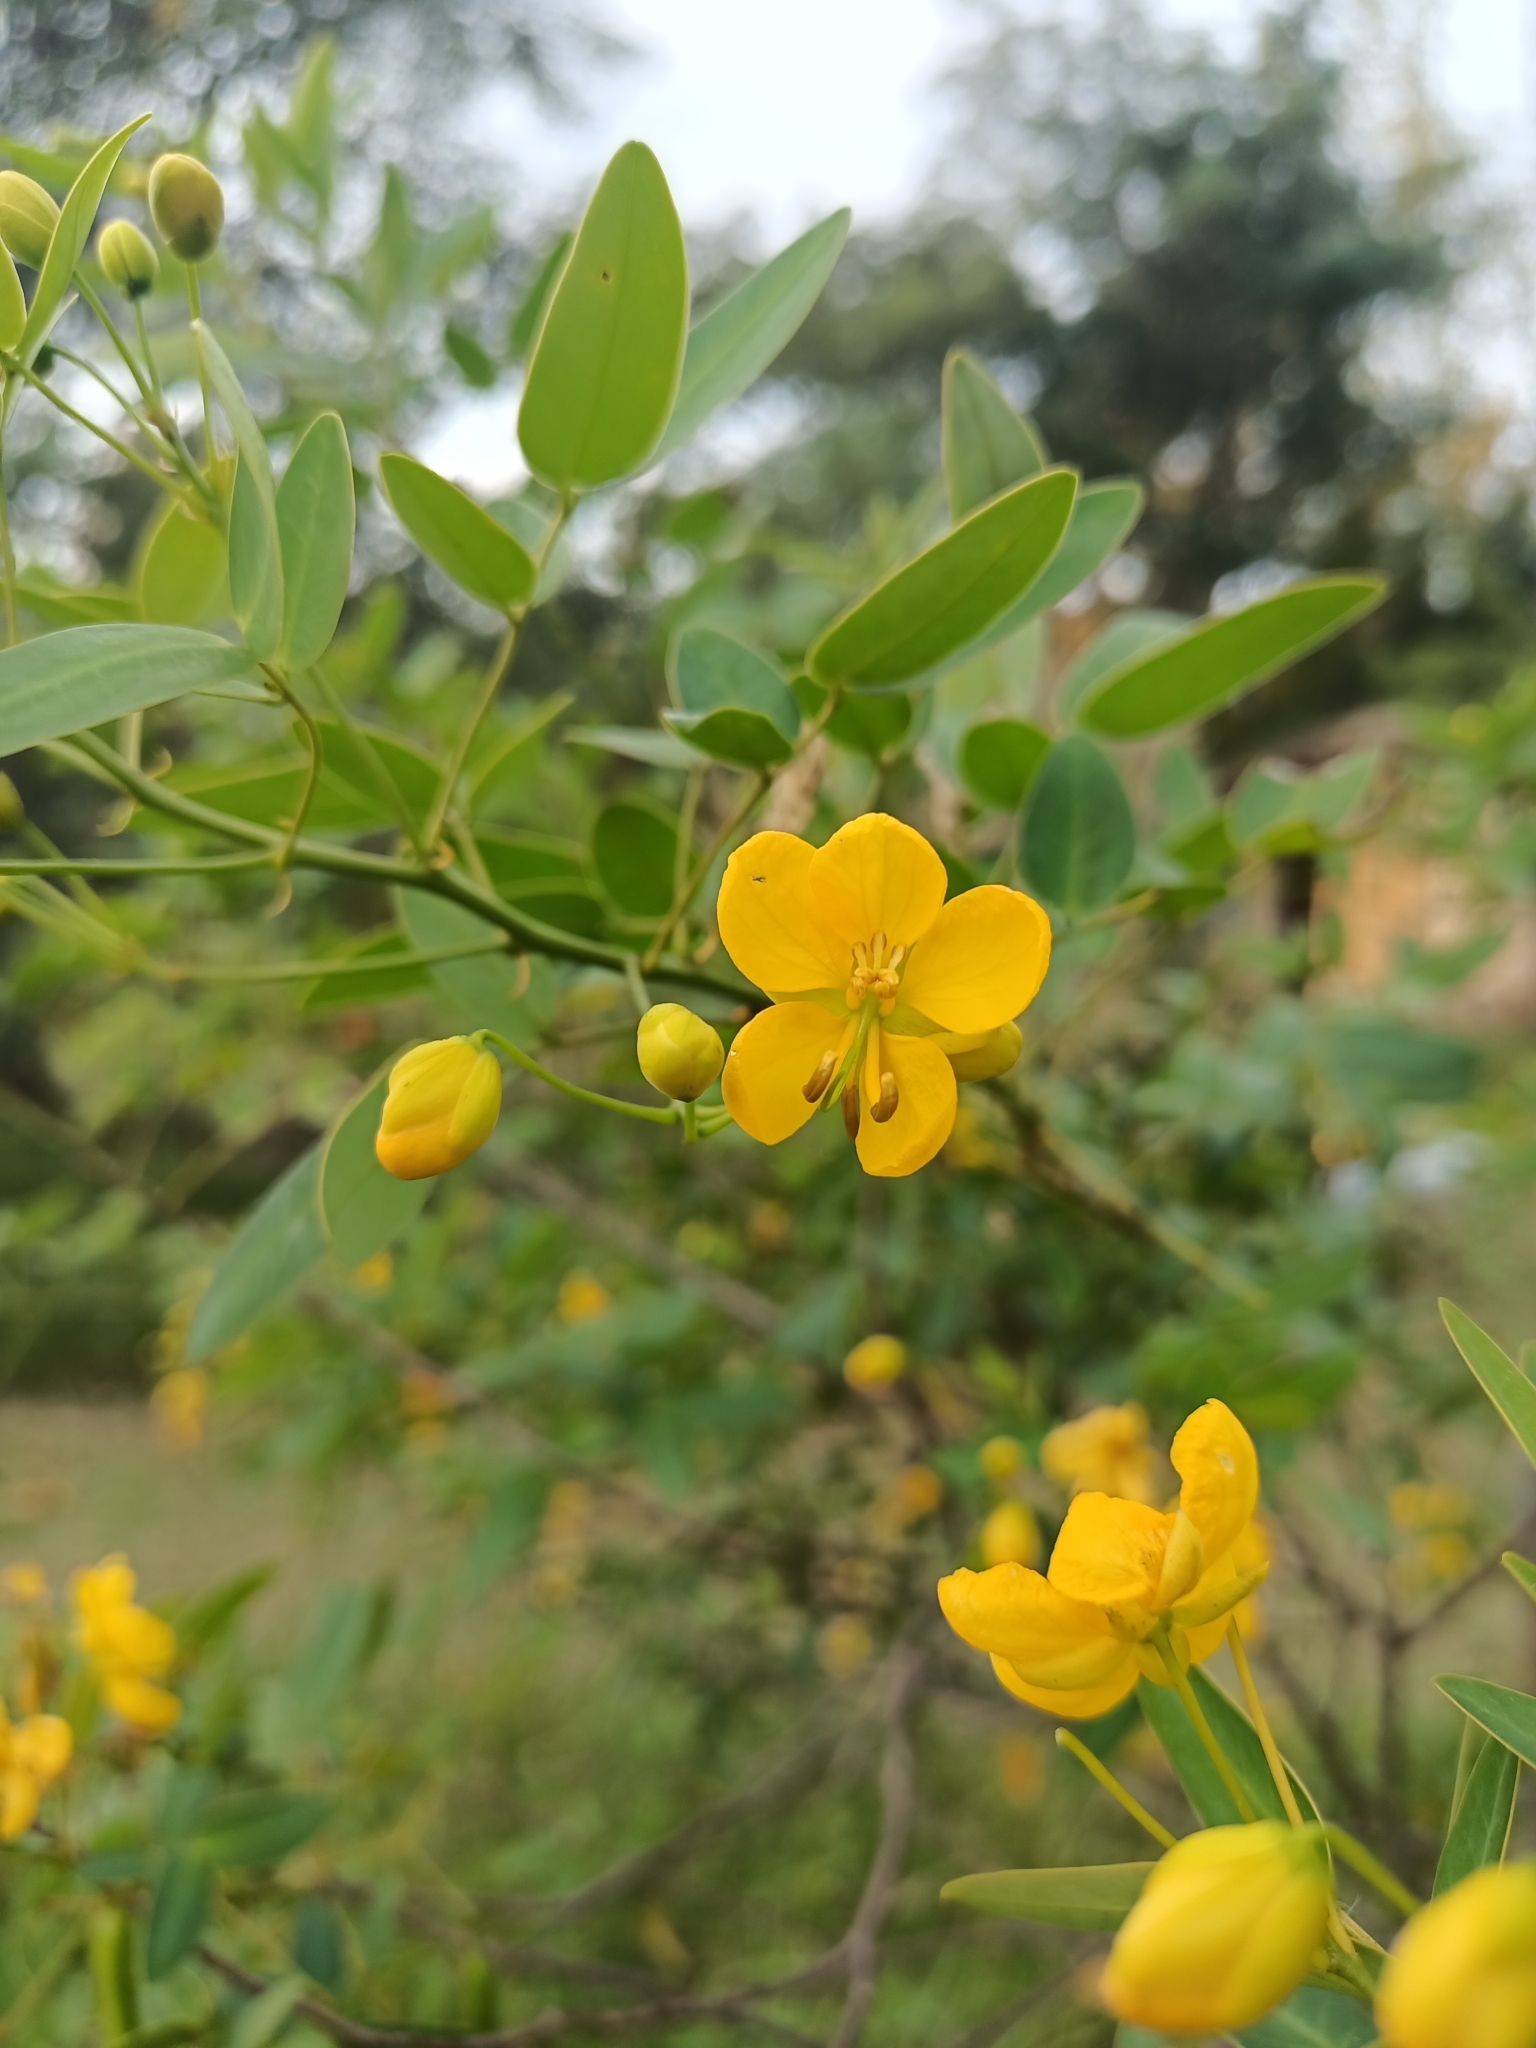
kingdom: Plantae
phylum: Tracheophyta
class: Magnoliopsida
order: Fabales
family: Fabaceae
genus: Senna
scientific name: Senna corymbosa
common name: Argentine senna
